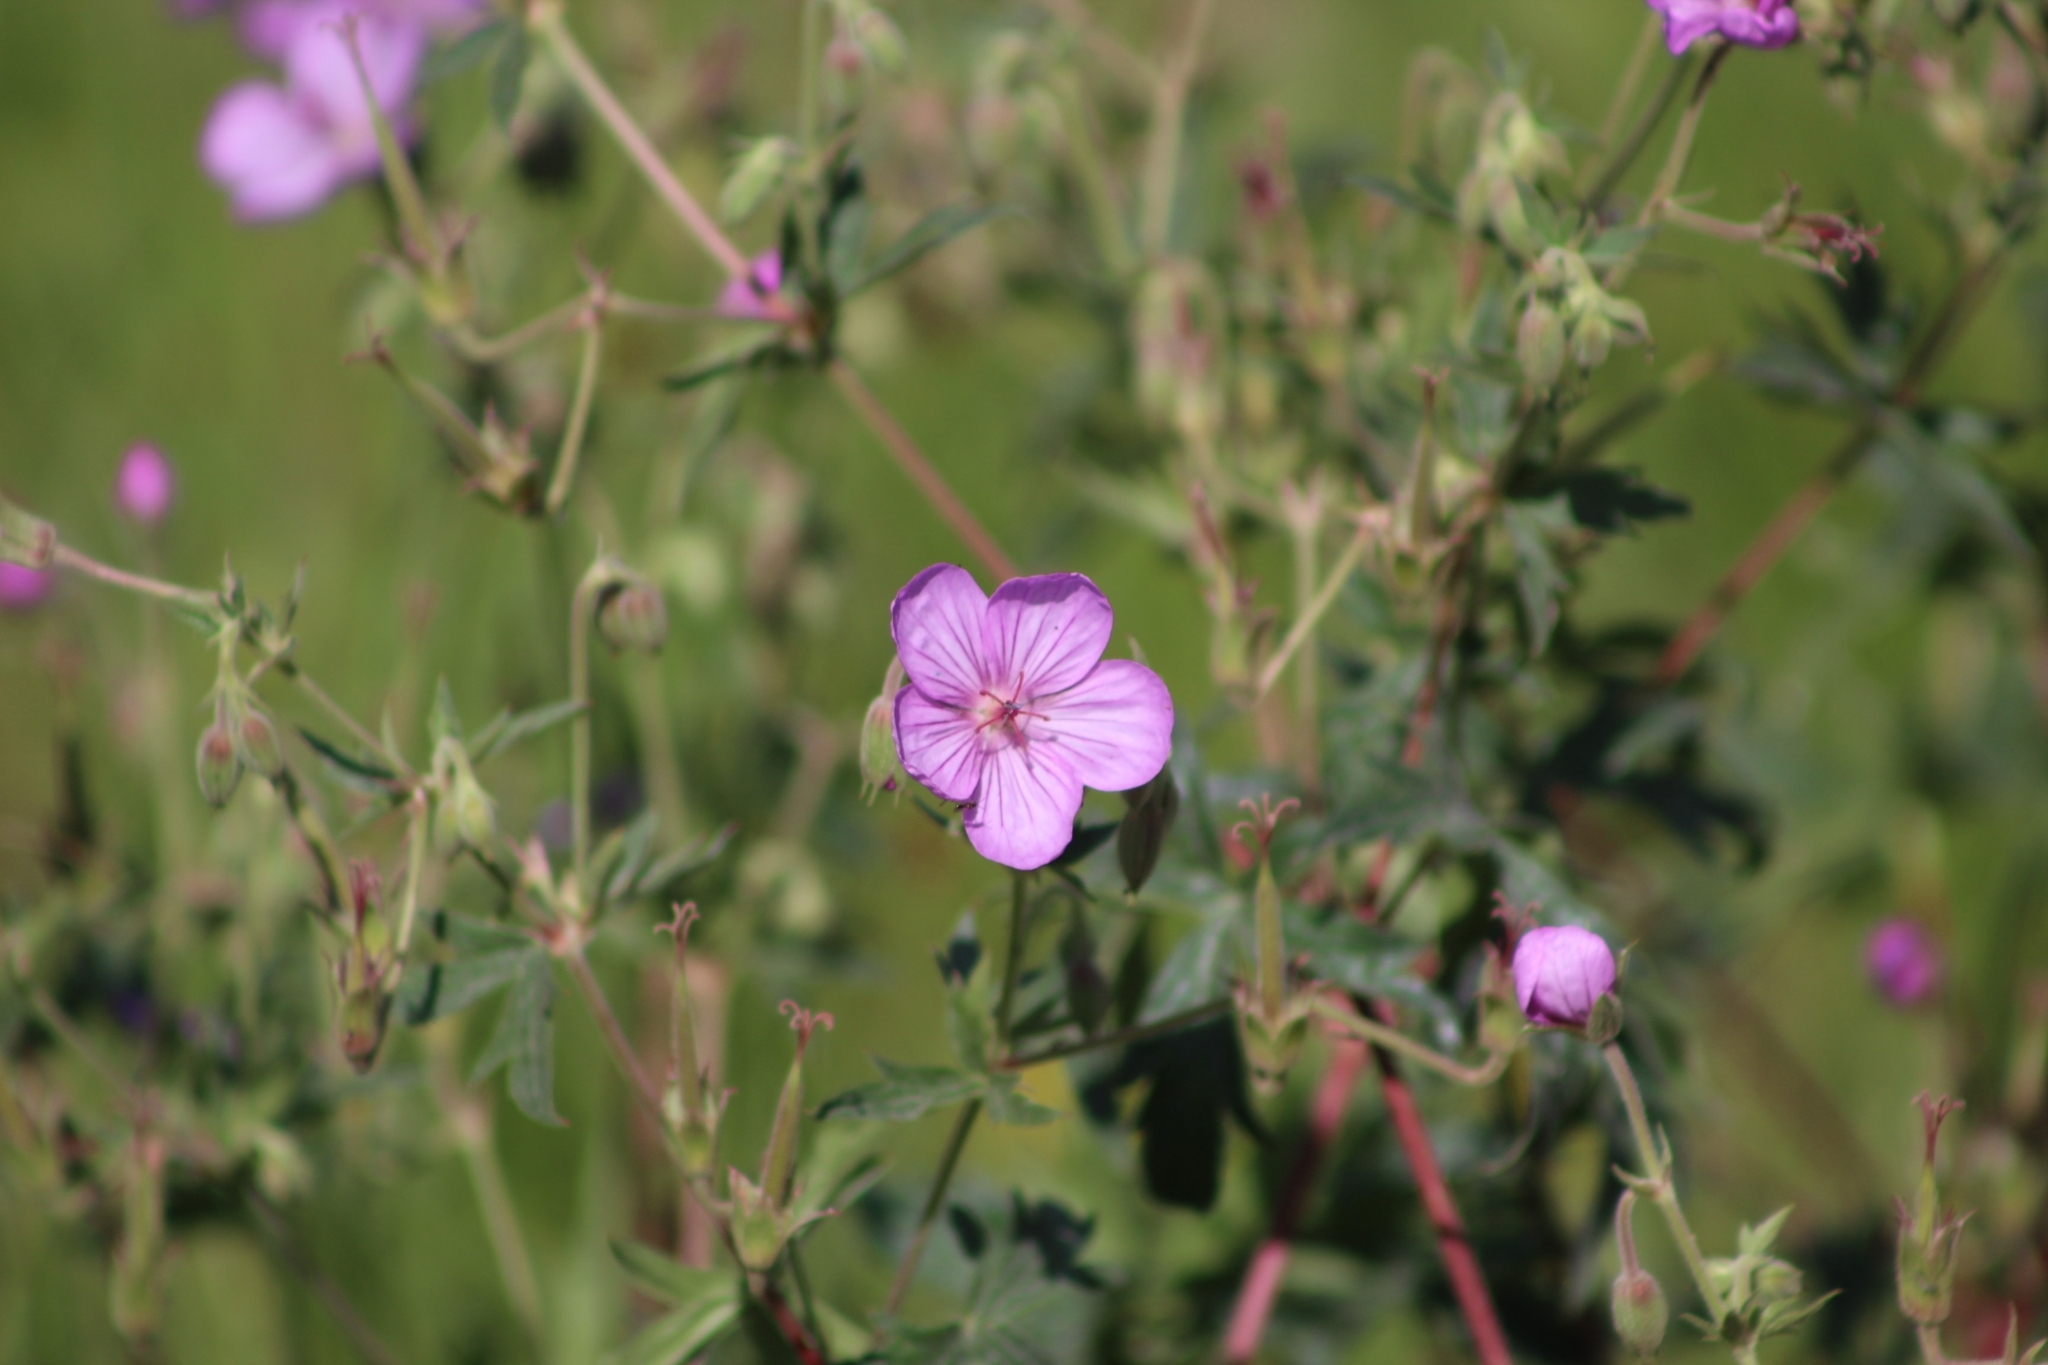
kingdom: Plantae
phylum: Tracheophyta
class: Magnoliopsida
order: Geraniales
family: Geraniaceae
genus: Geranium
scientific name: Geranium viscosissimum
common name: Purple geranium
